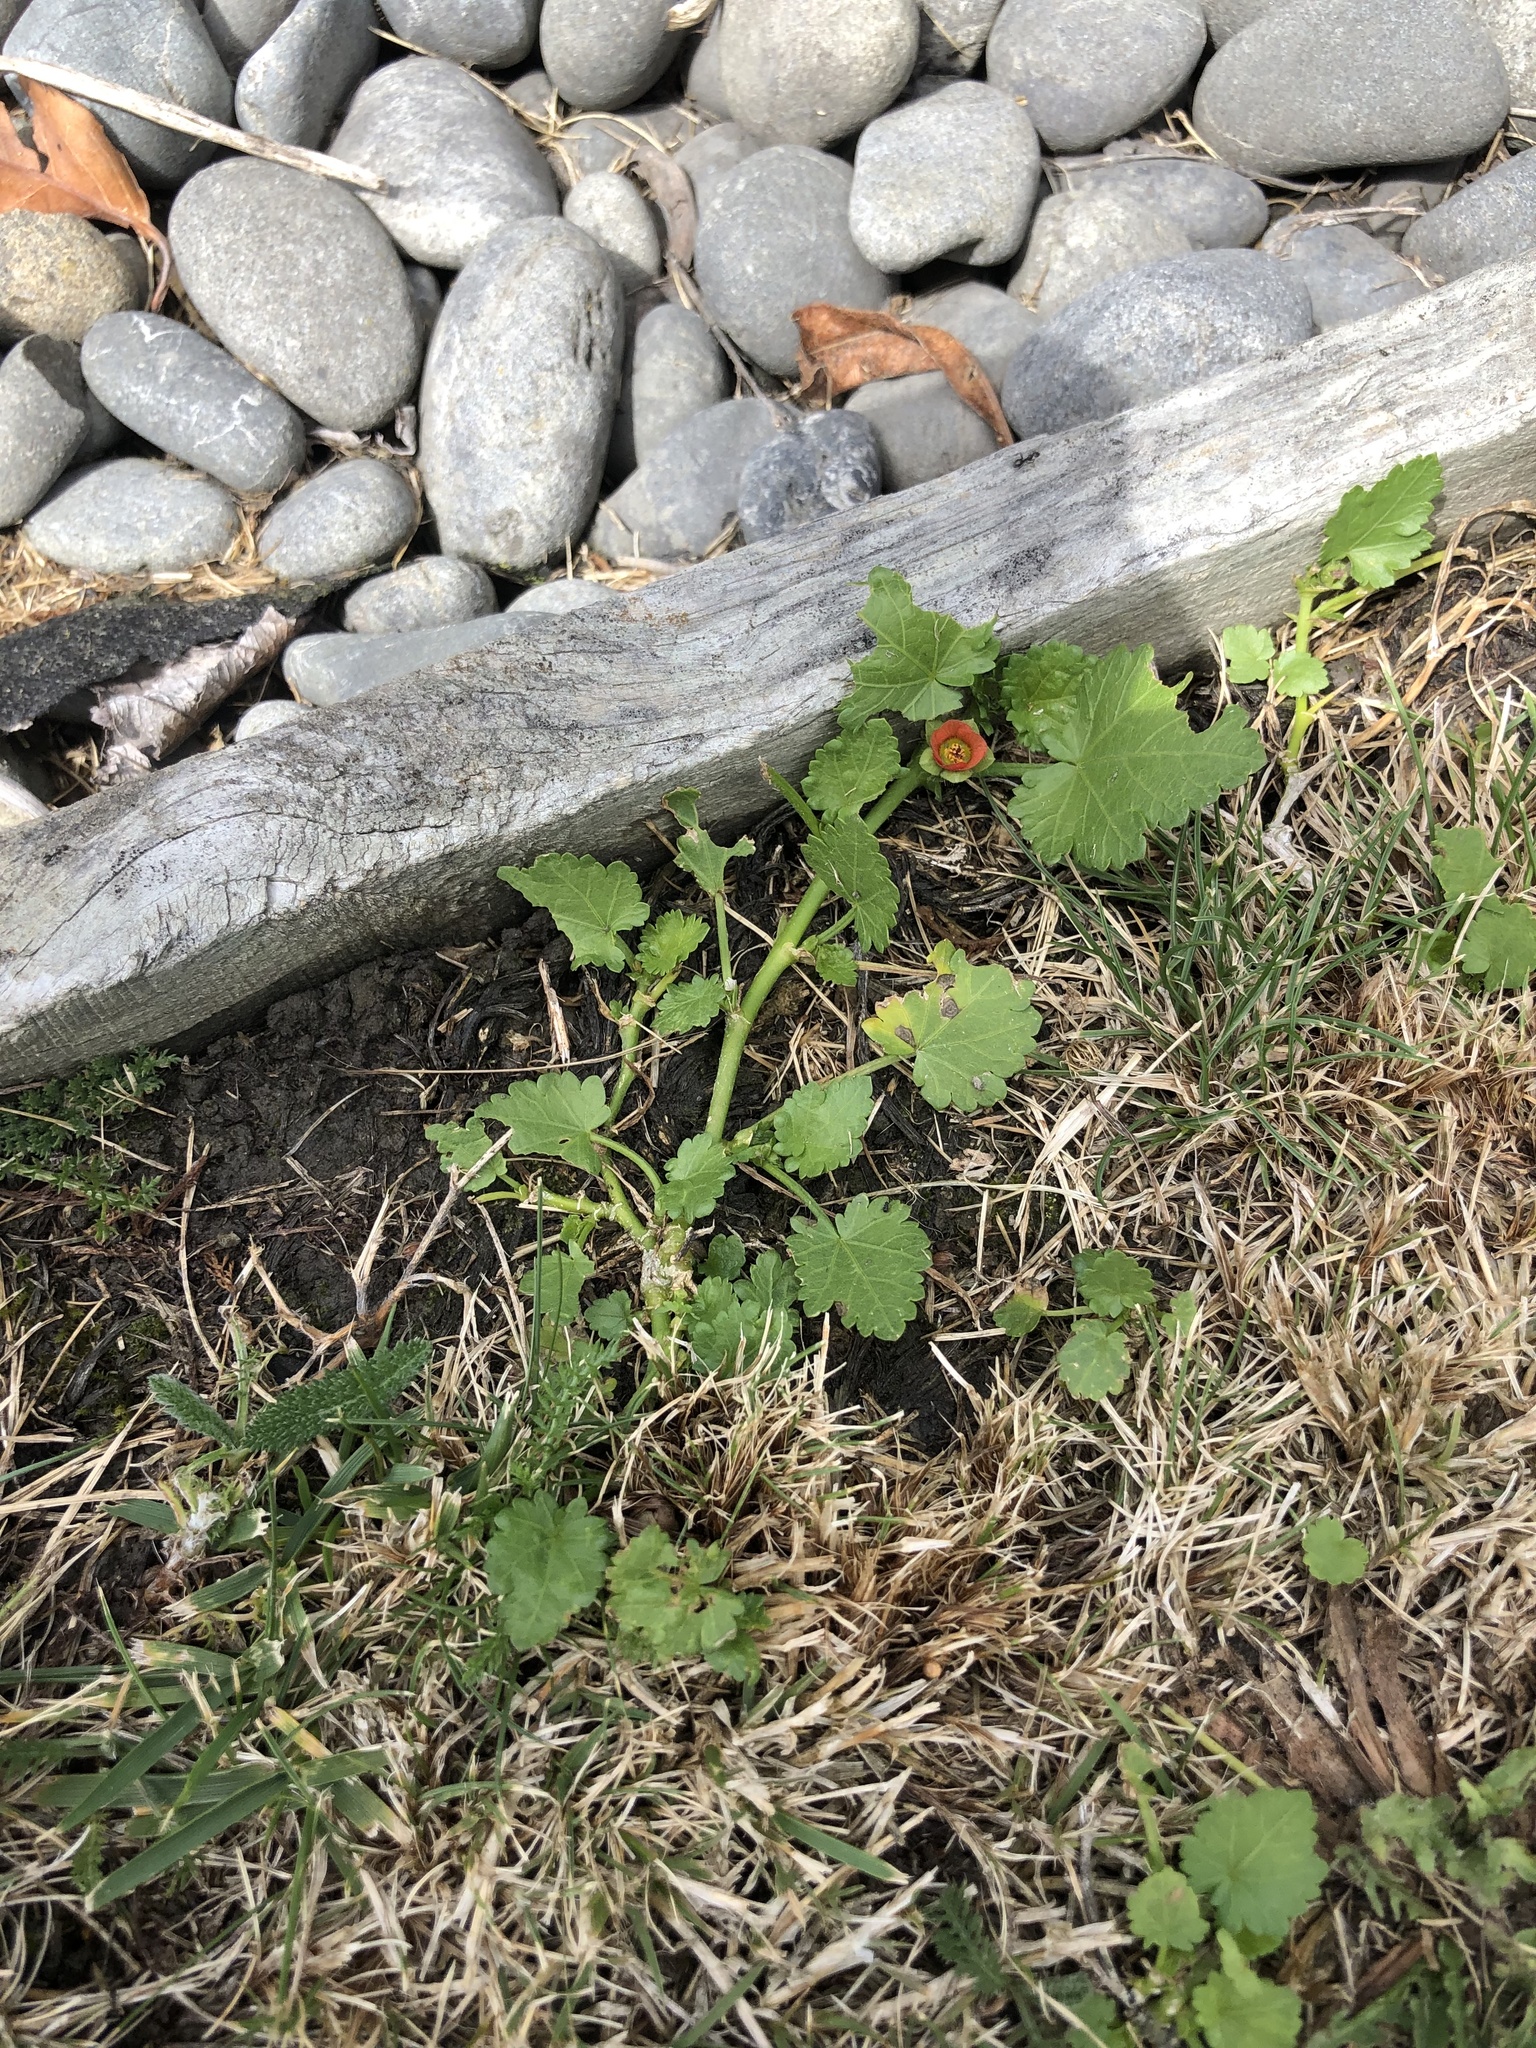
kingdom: Plantae
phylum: Tracheophyta
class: Magnoliopsida
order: Malvales
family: Malvaceae
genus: Modiola
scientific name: Modiola caroliniana
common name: Carolina bristlemallow
